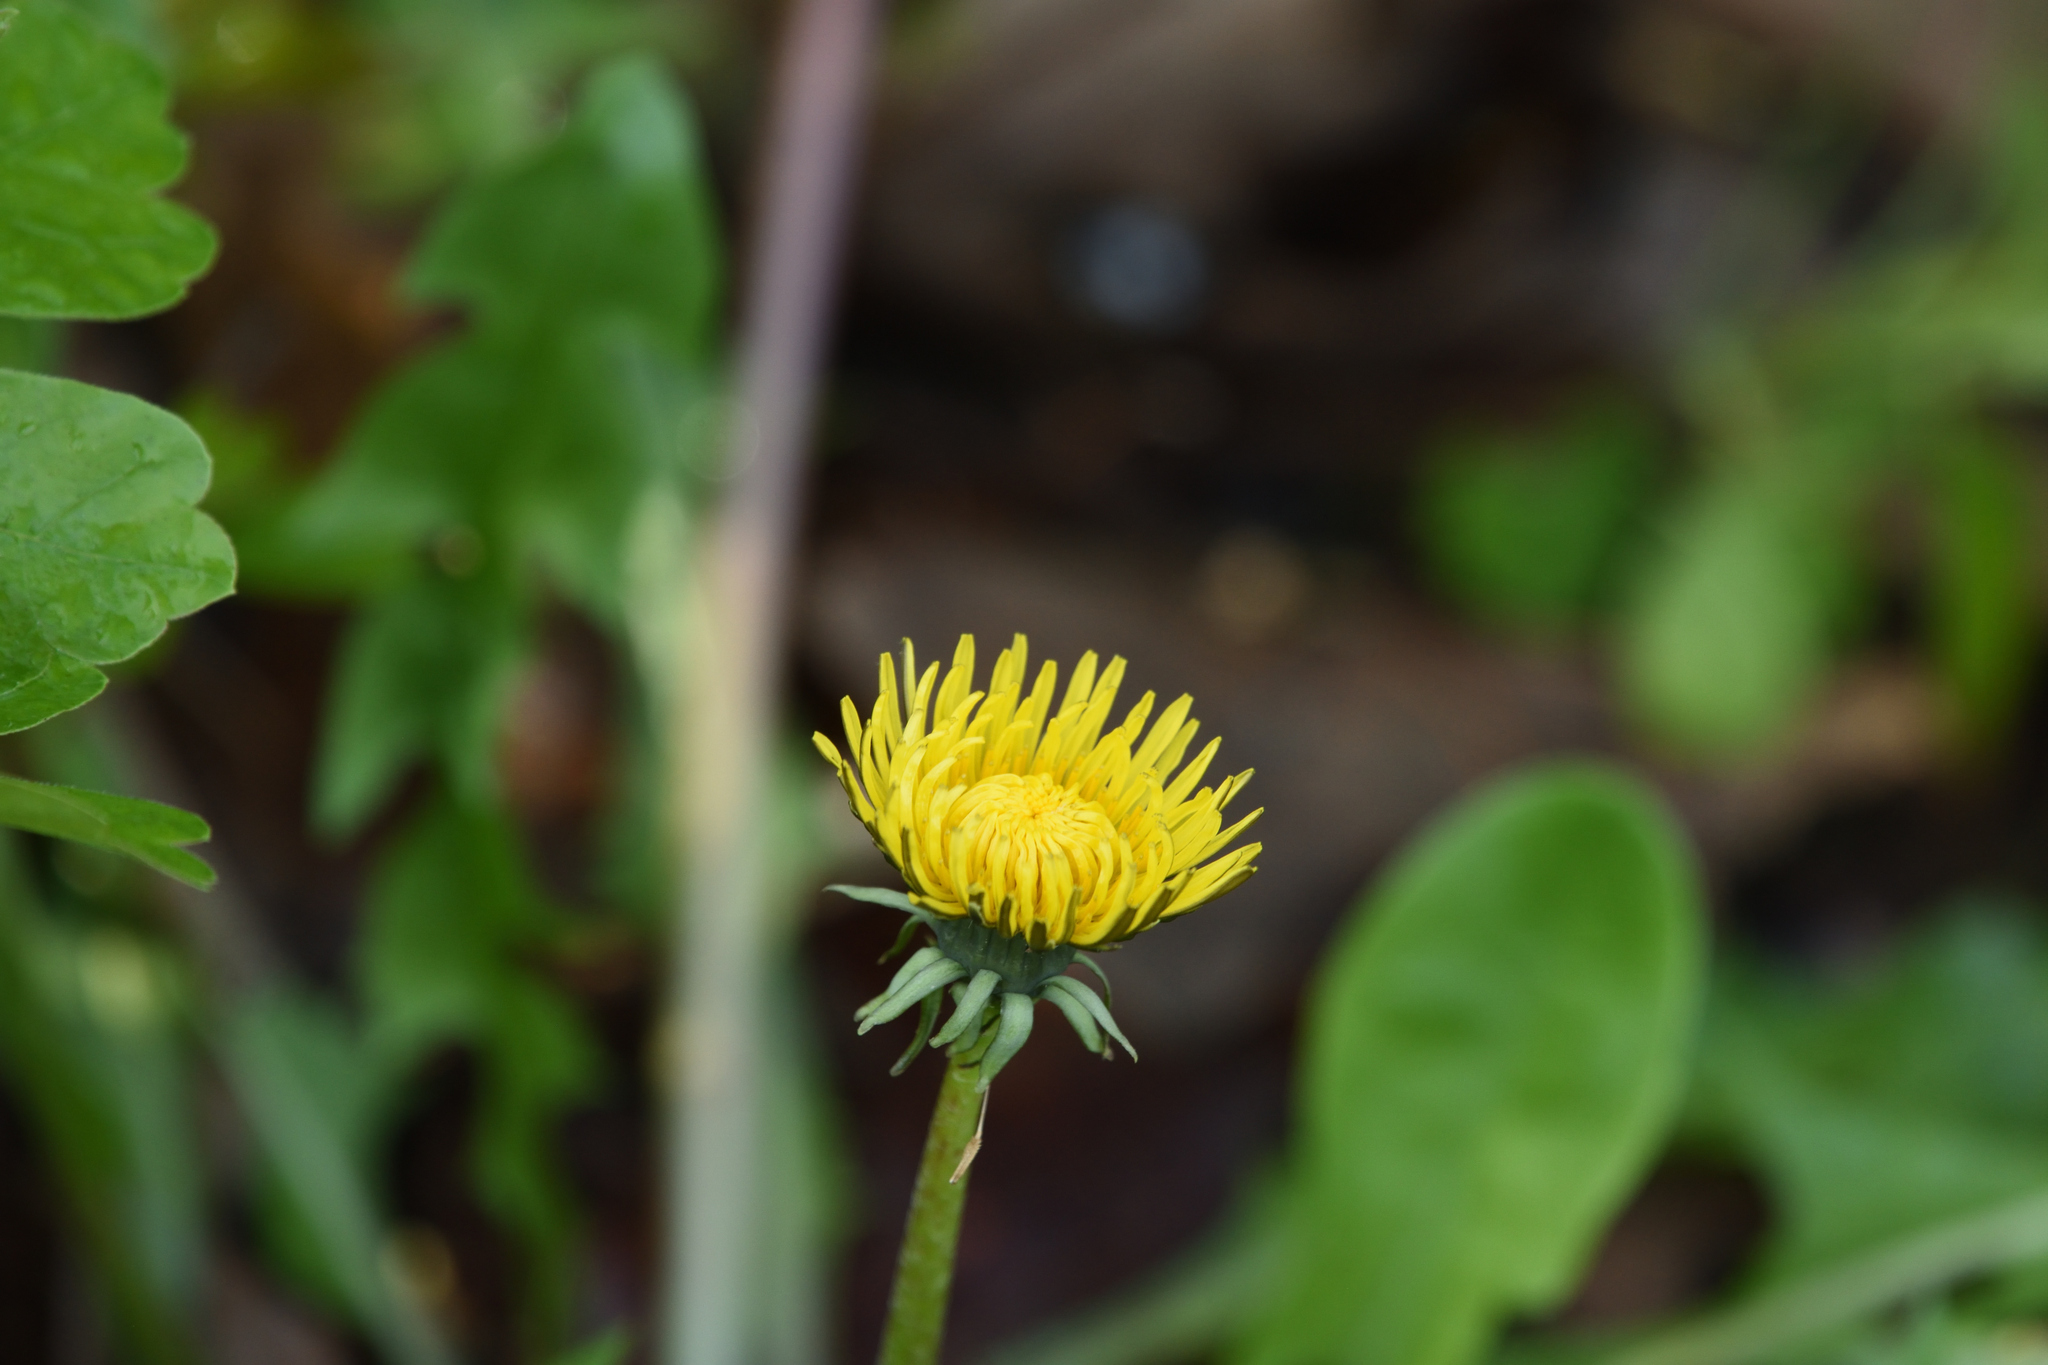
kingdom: Plantae
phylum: Tracheophyta
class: Magnoliopsida
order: Asterales
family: Asteraceae
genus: Taraxacum
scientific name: Taraxacum officinale
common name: Common dandelion
